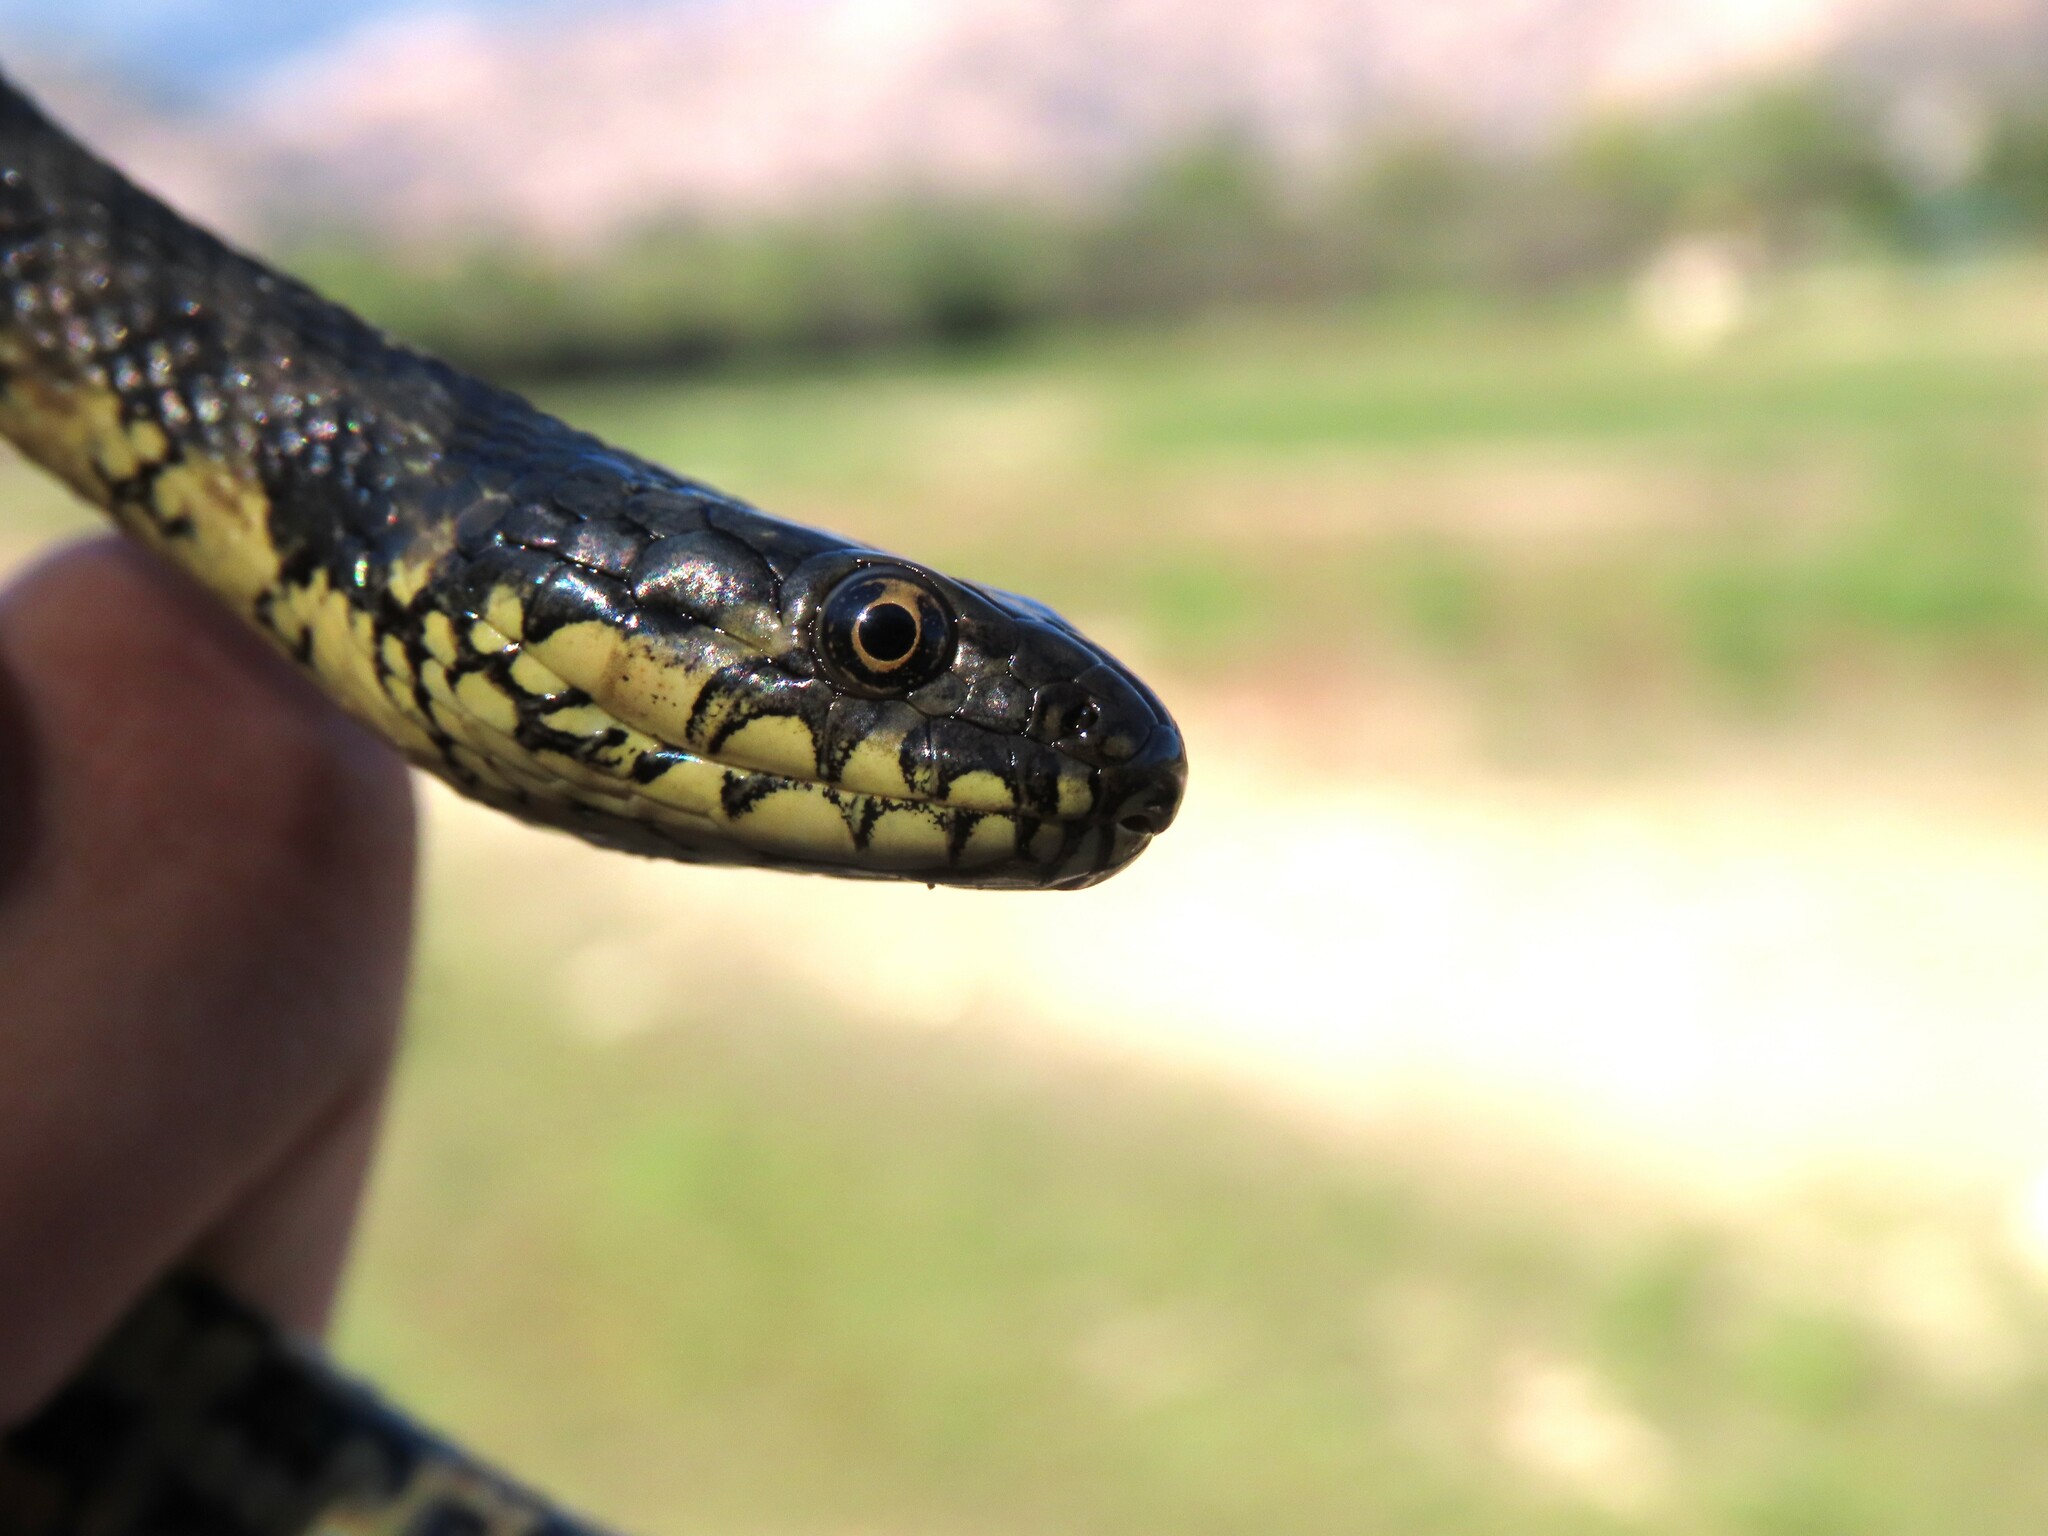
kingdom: Animalia
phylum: Chordata
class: Squamata
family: Colubridae
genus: Natrix
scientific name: Natrix maura
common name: Viperine water snake
